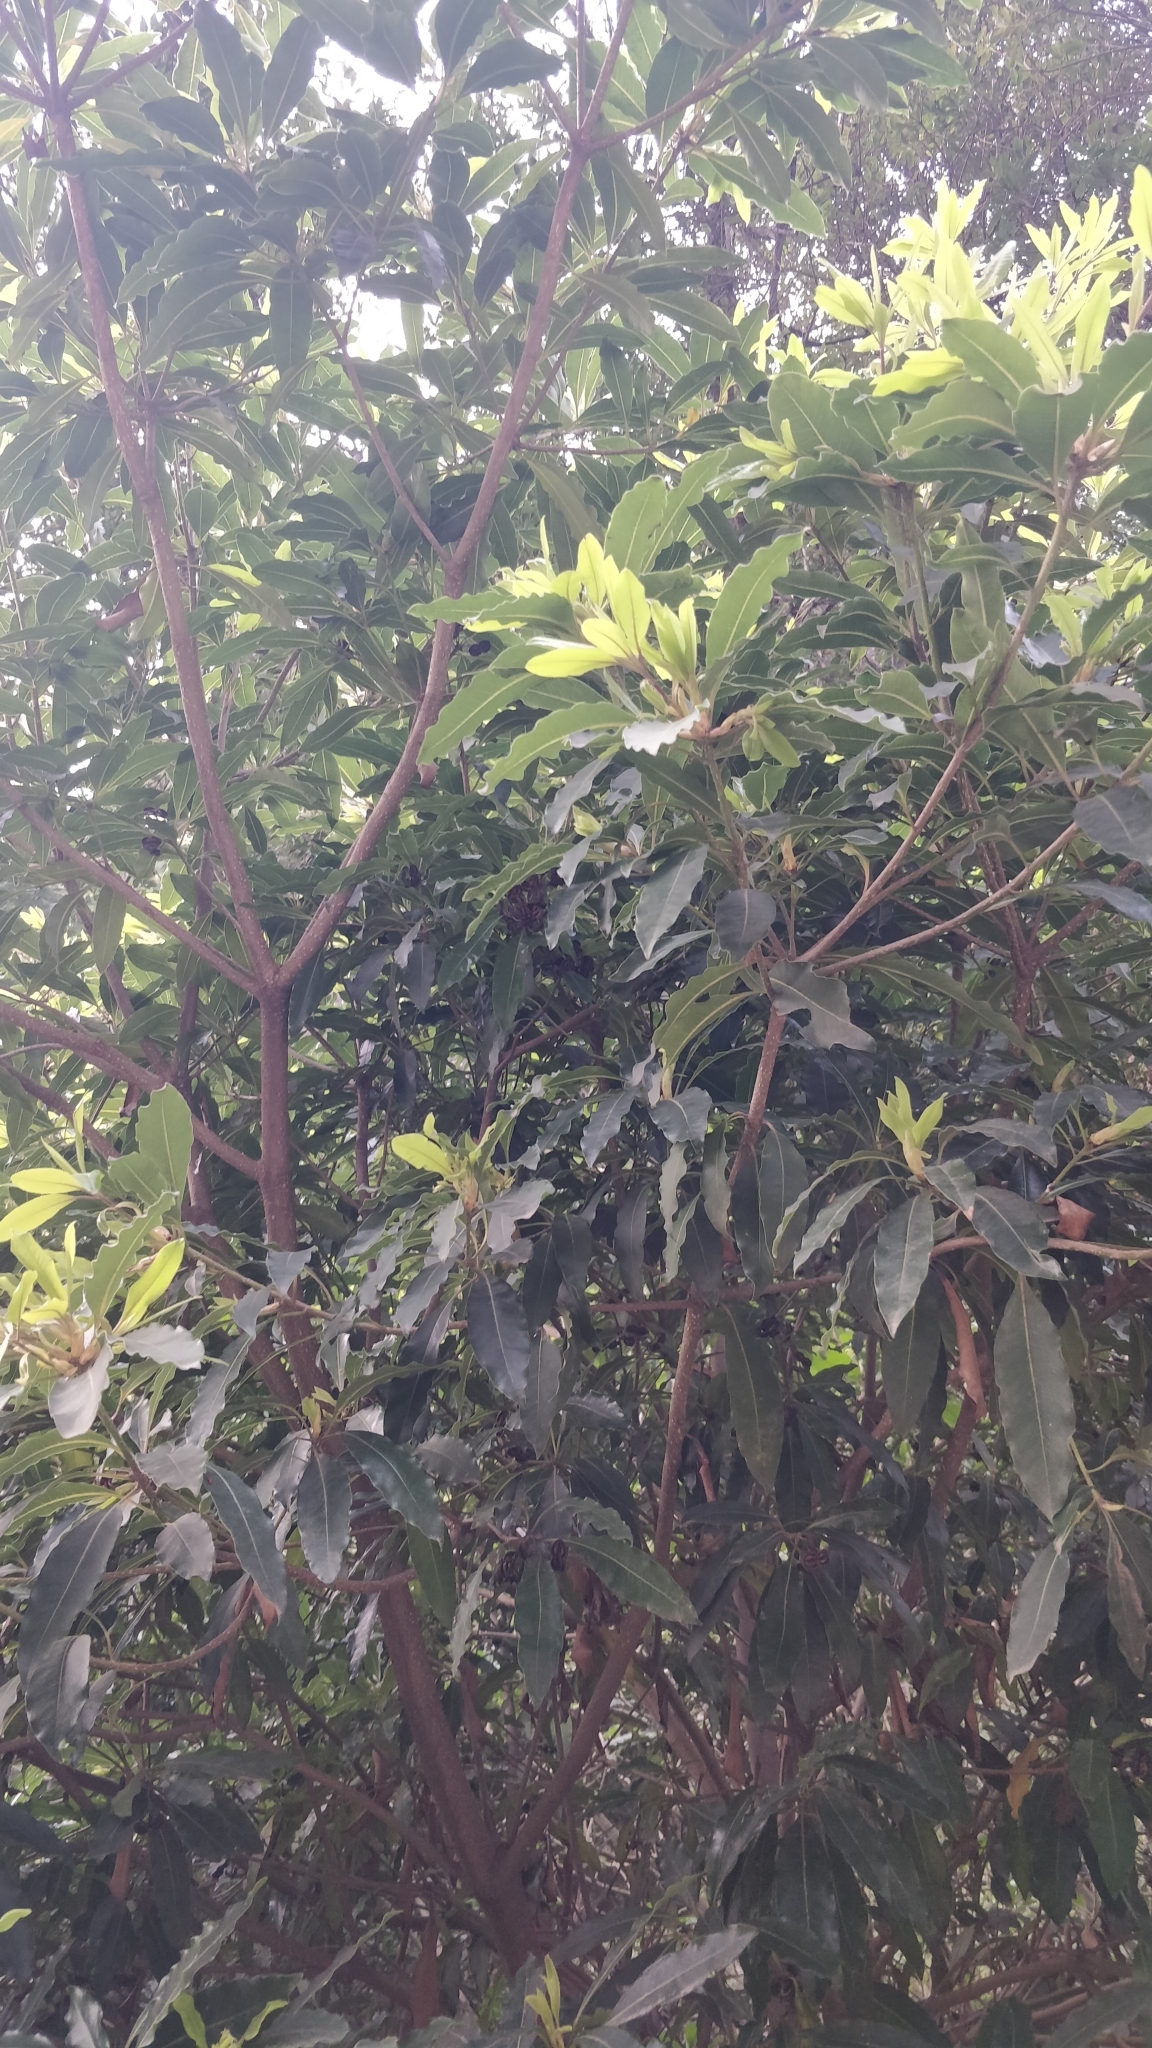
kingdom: Plantae
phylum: Tracheophyta
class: Magnoliopsida
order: Apiales
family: Pittosporaceae
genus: Pittosporum
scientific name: Pittosporum undulatum
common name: Australian cheesewood
